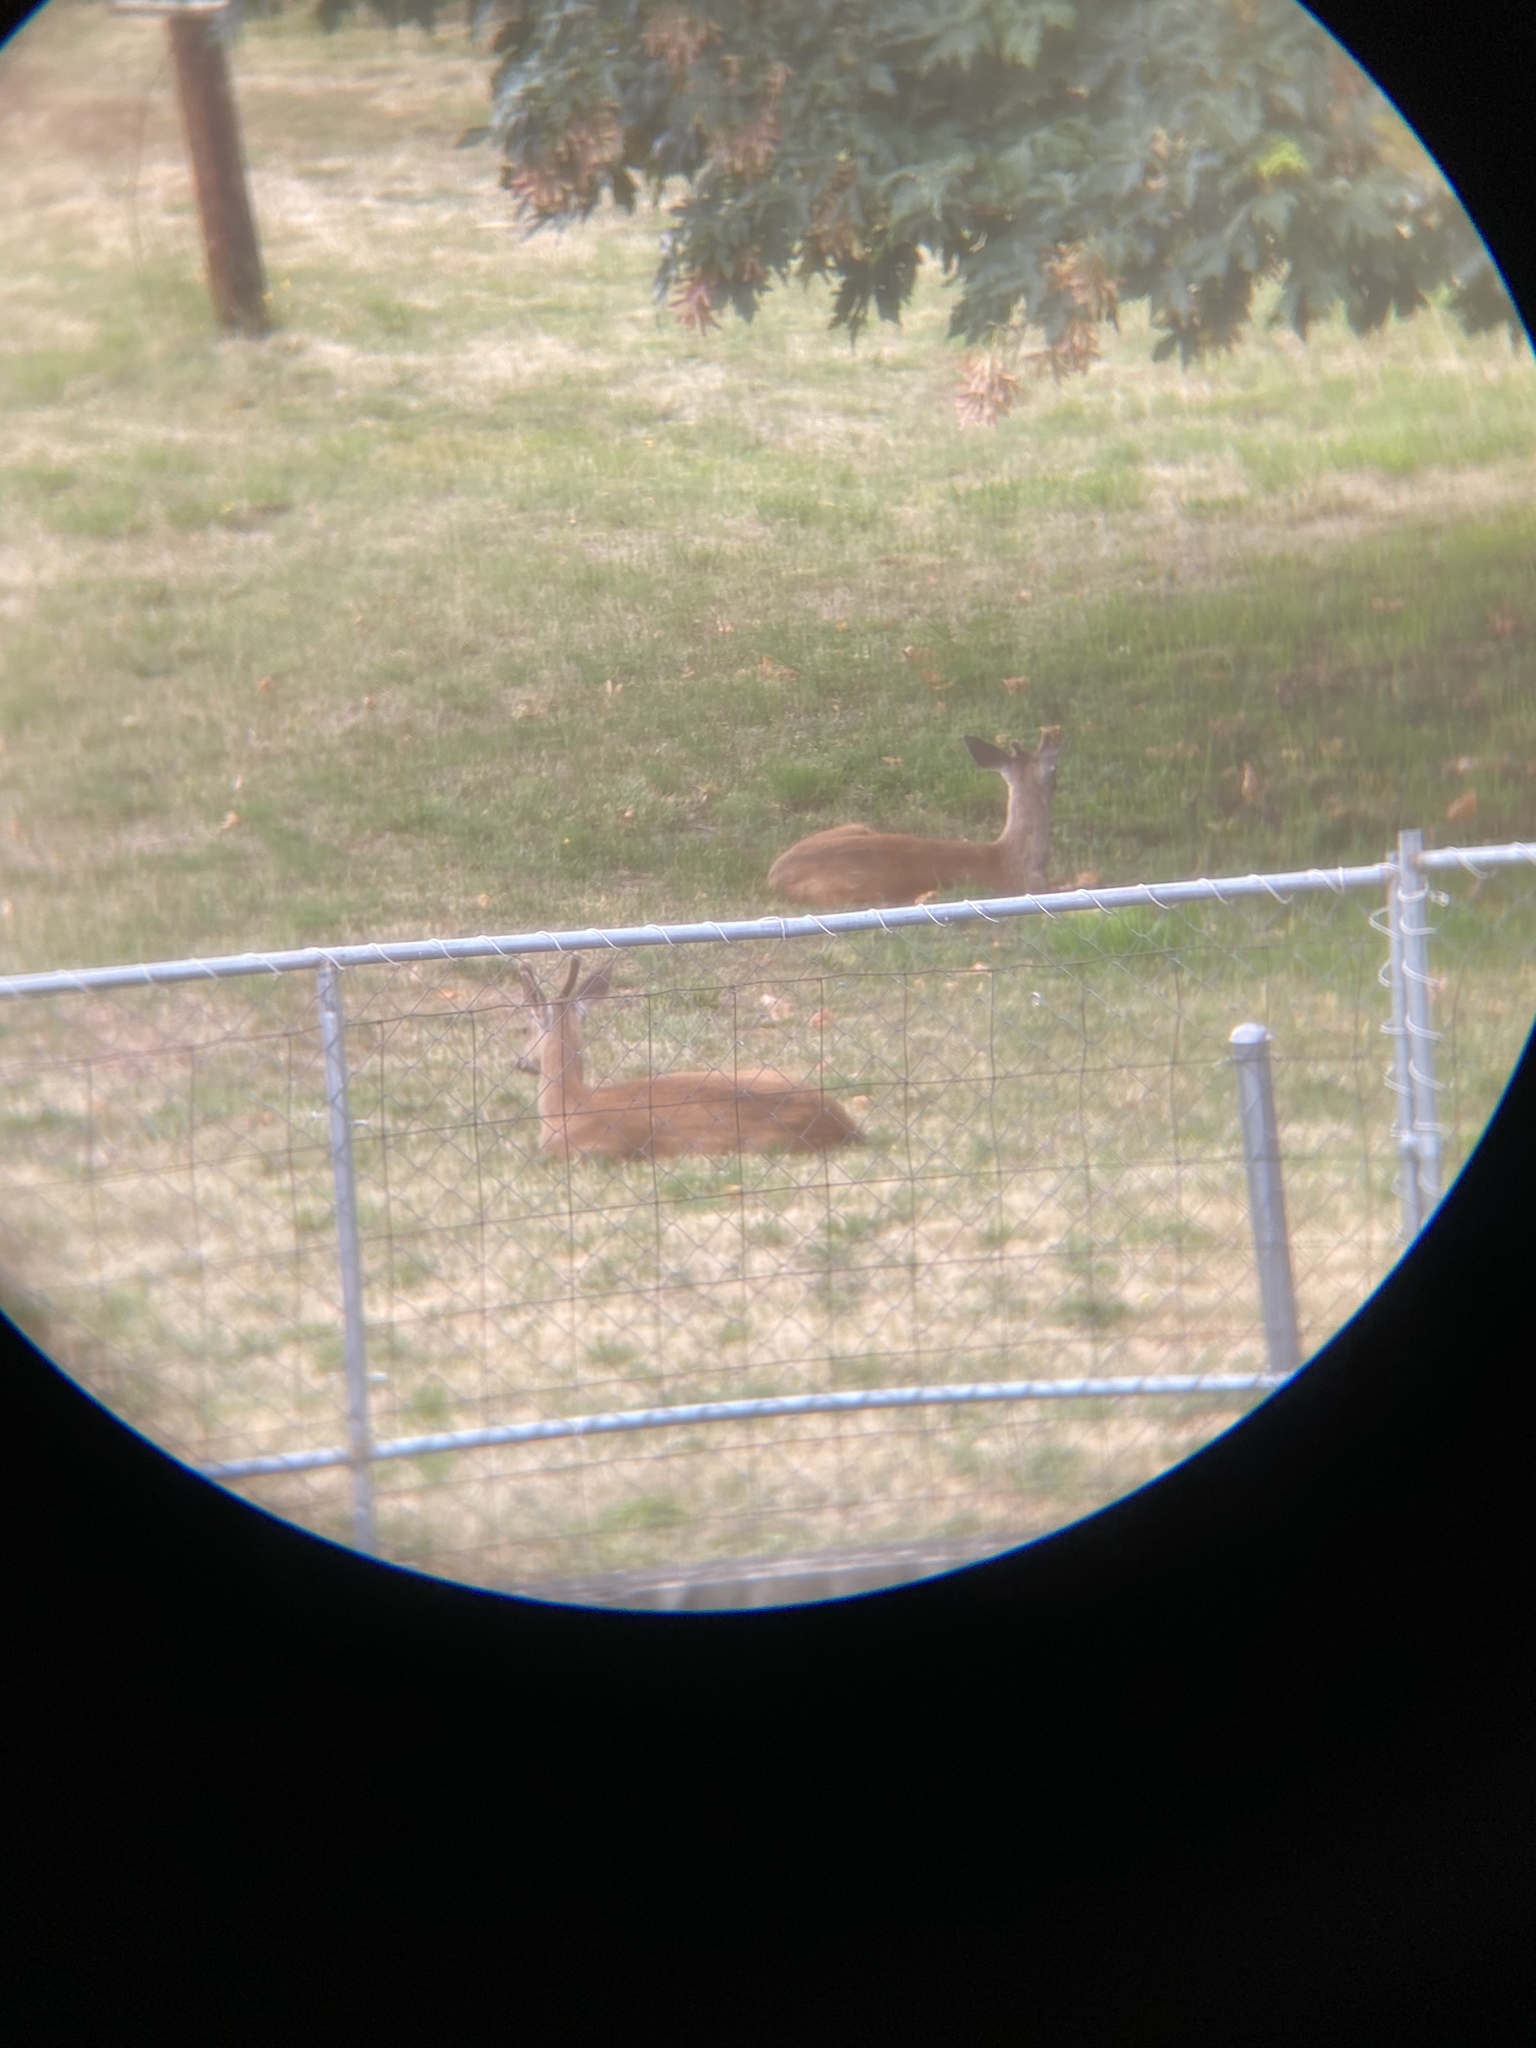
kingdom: Animalia
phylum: Chordata
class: Mammalia
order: Artiodactyla
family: Cervidae
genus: Odocoileus
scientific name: Odocoileus hemionus
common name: Mule deer
